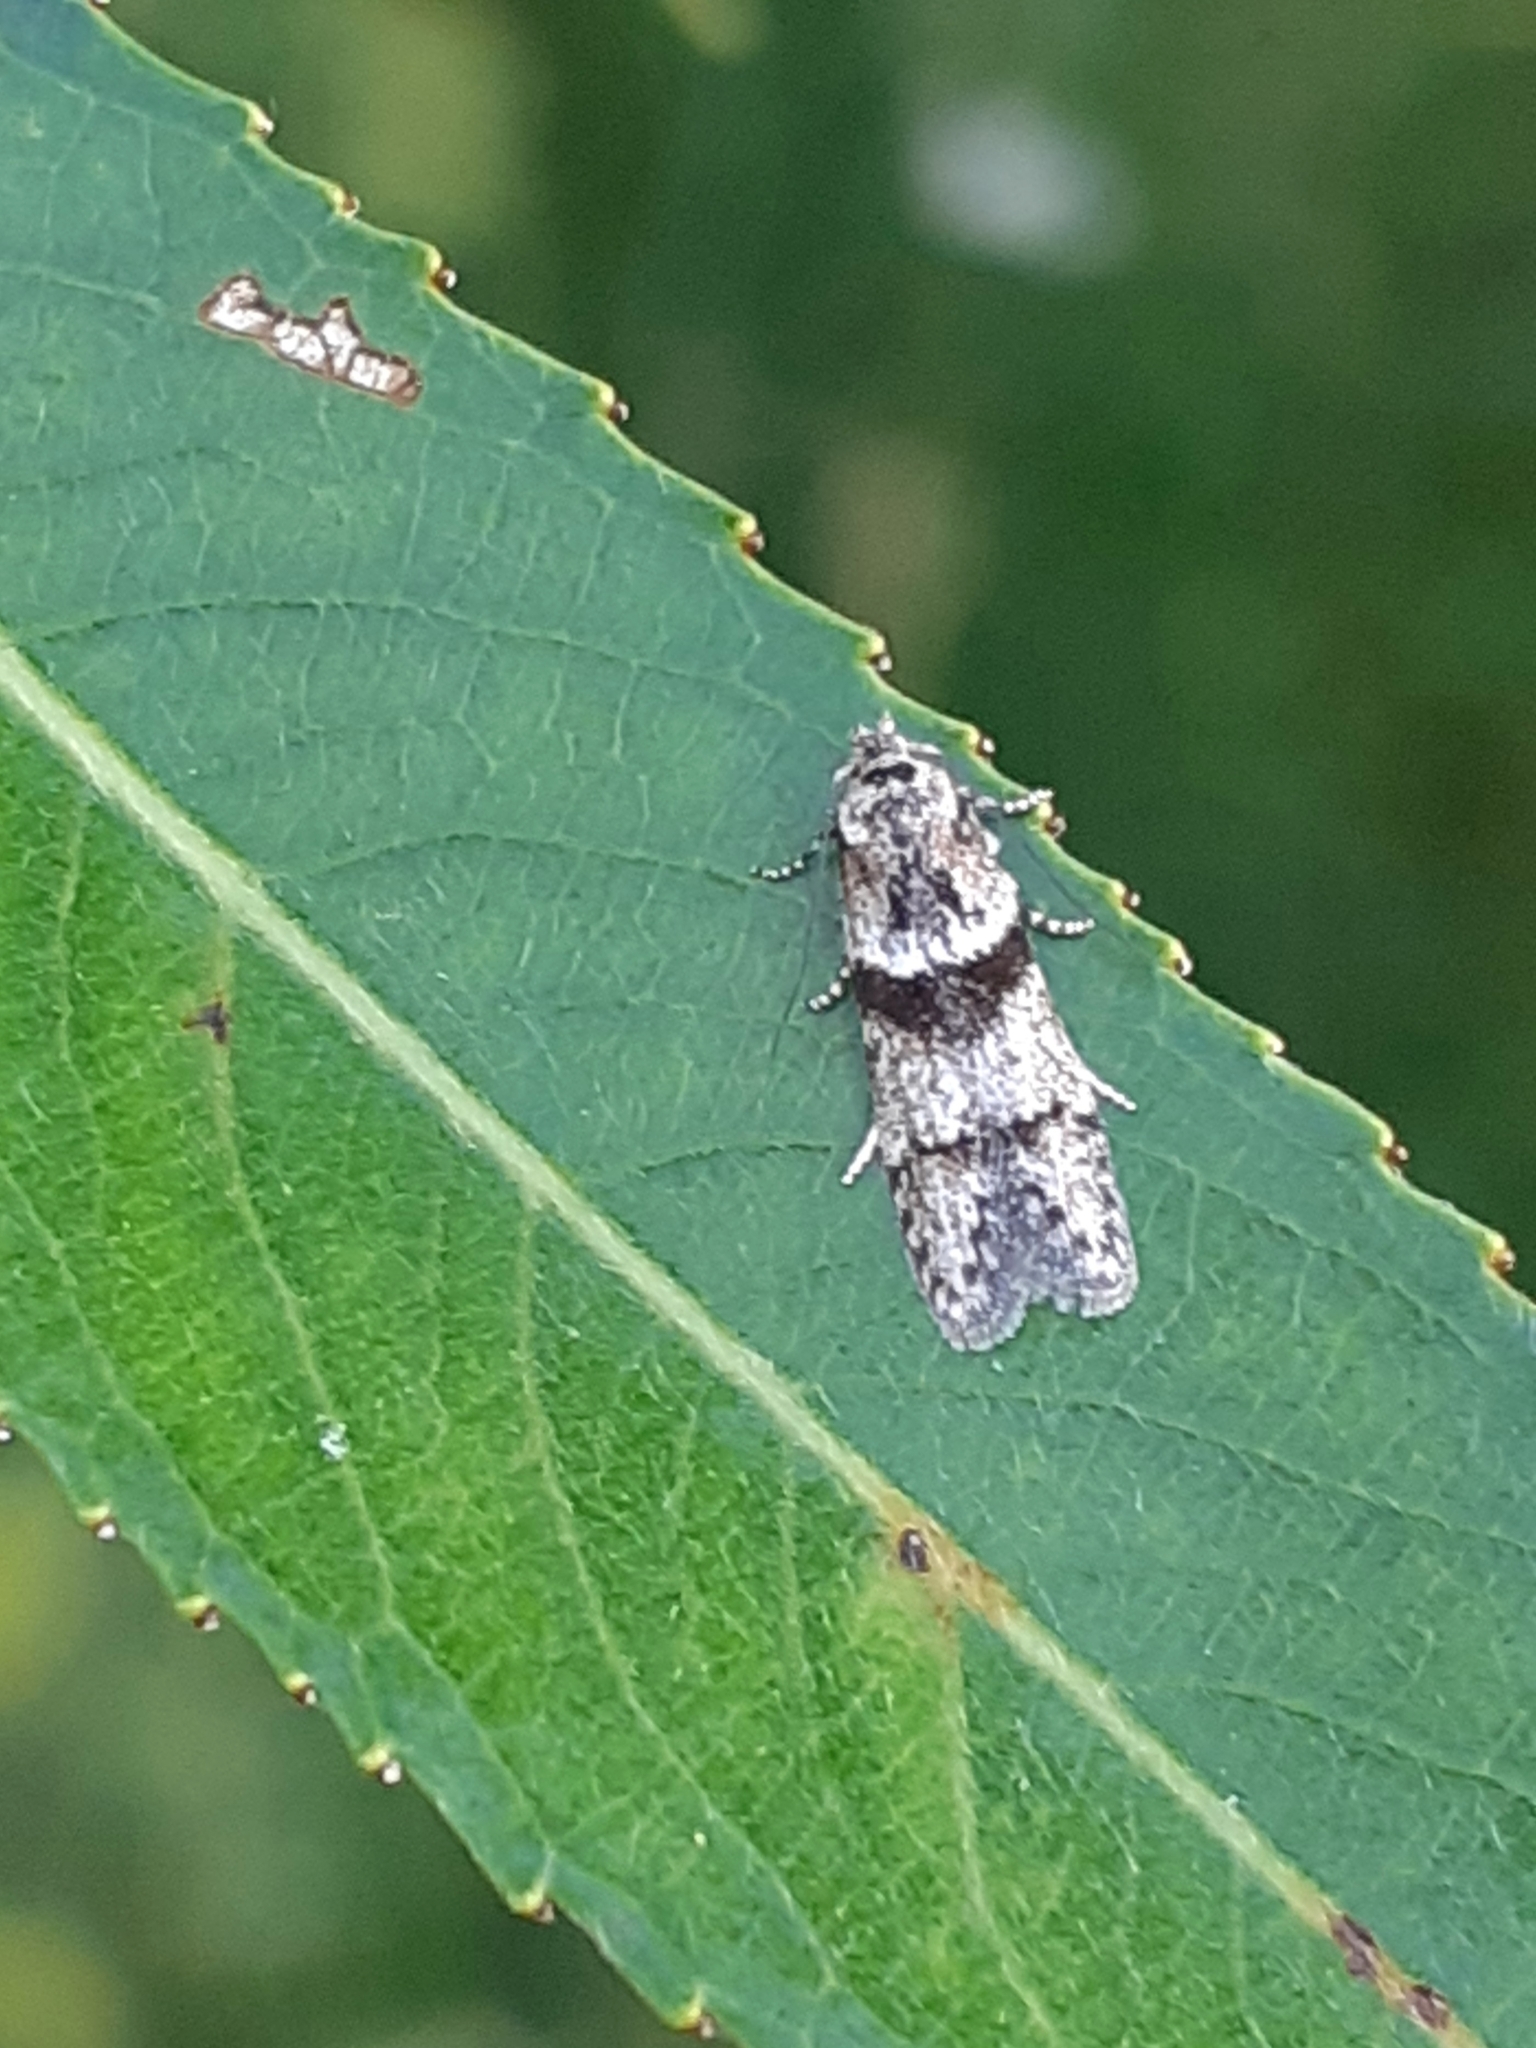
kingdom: Animalia
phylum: Arthropoda
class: Insecta
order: Lepidoptera
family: Blastobasidae
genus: Blastobasis
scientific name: Blastobasis rebeli
